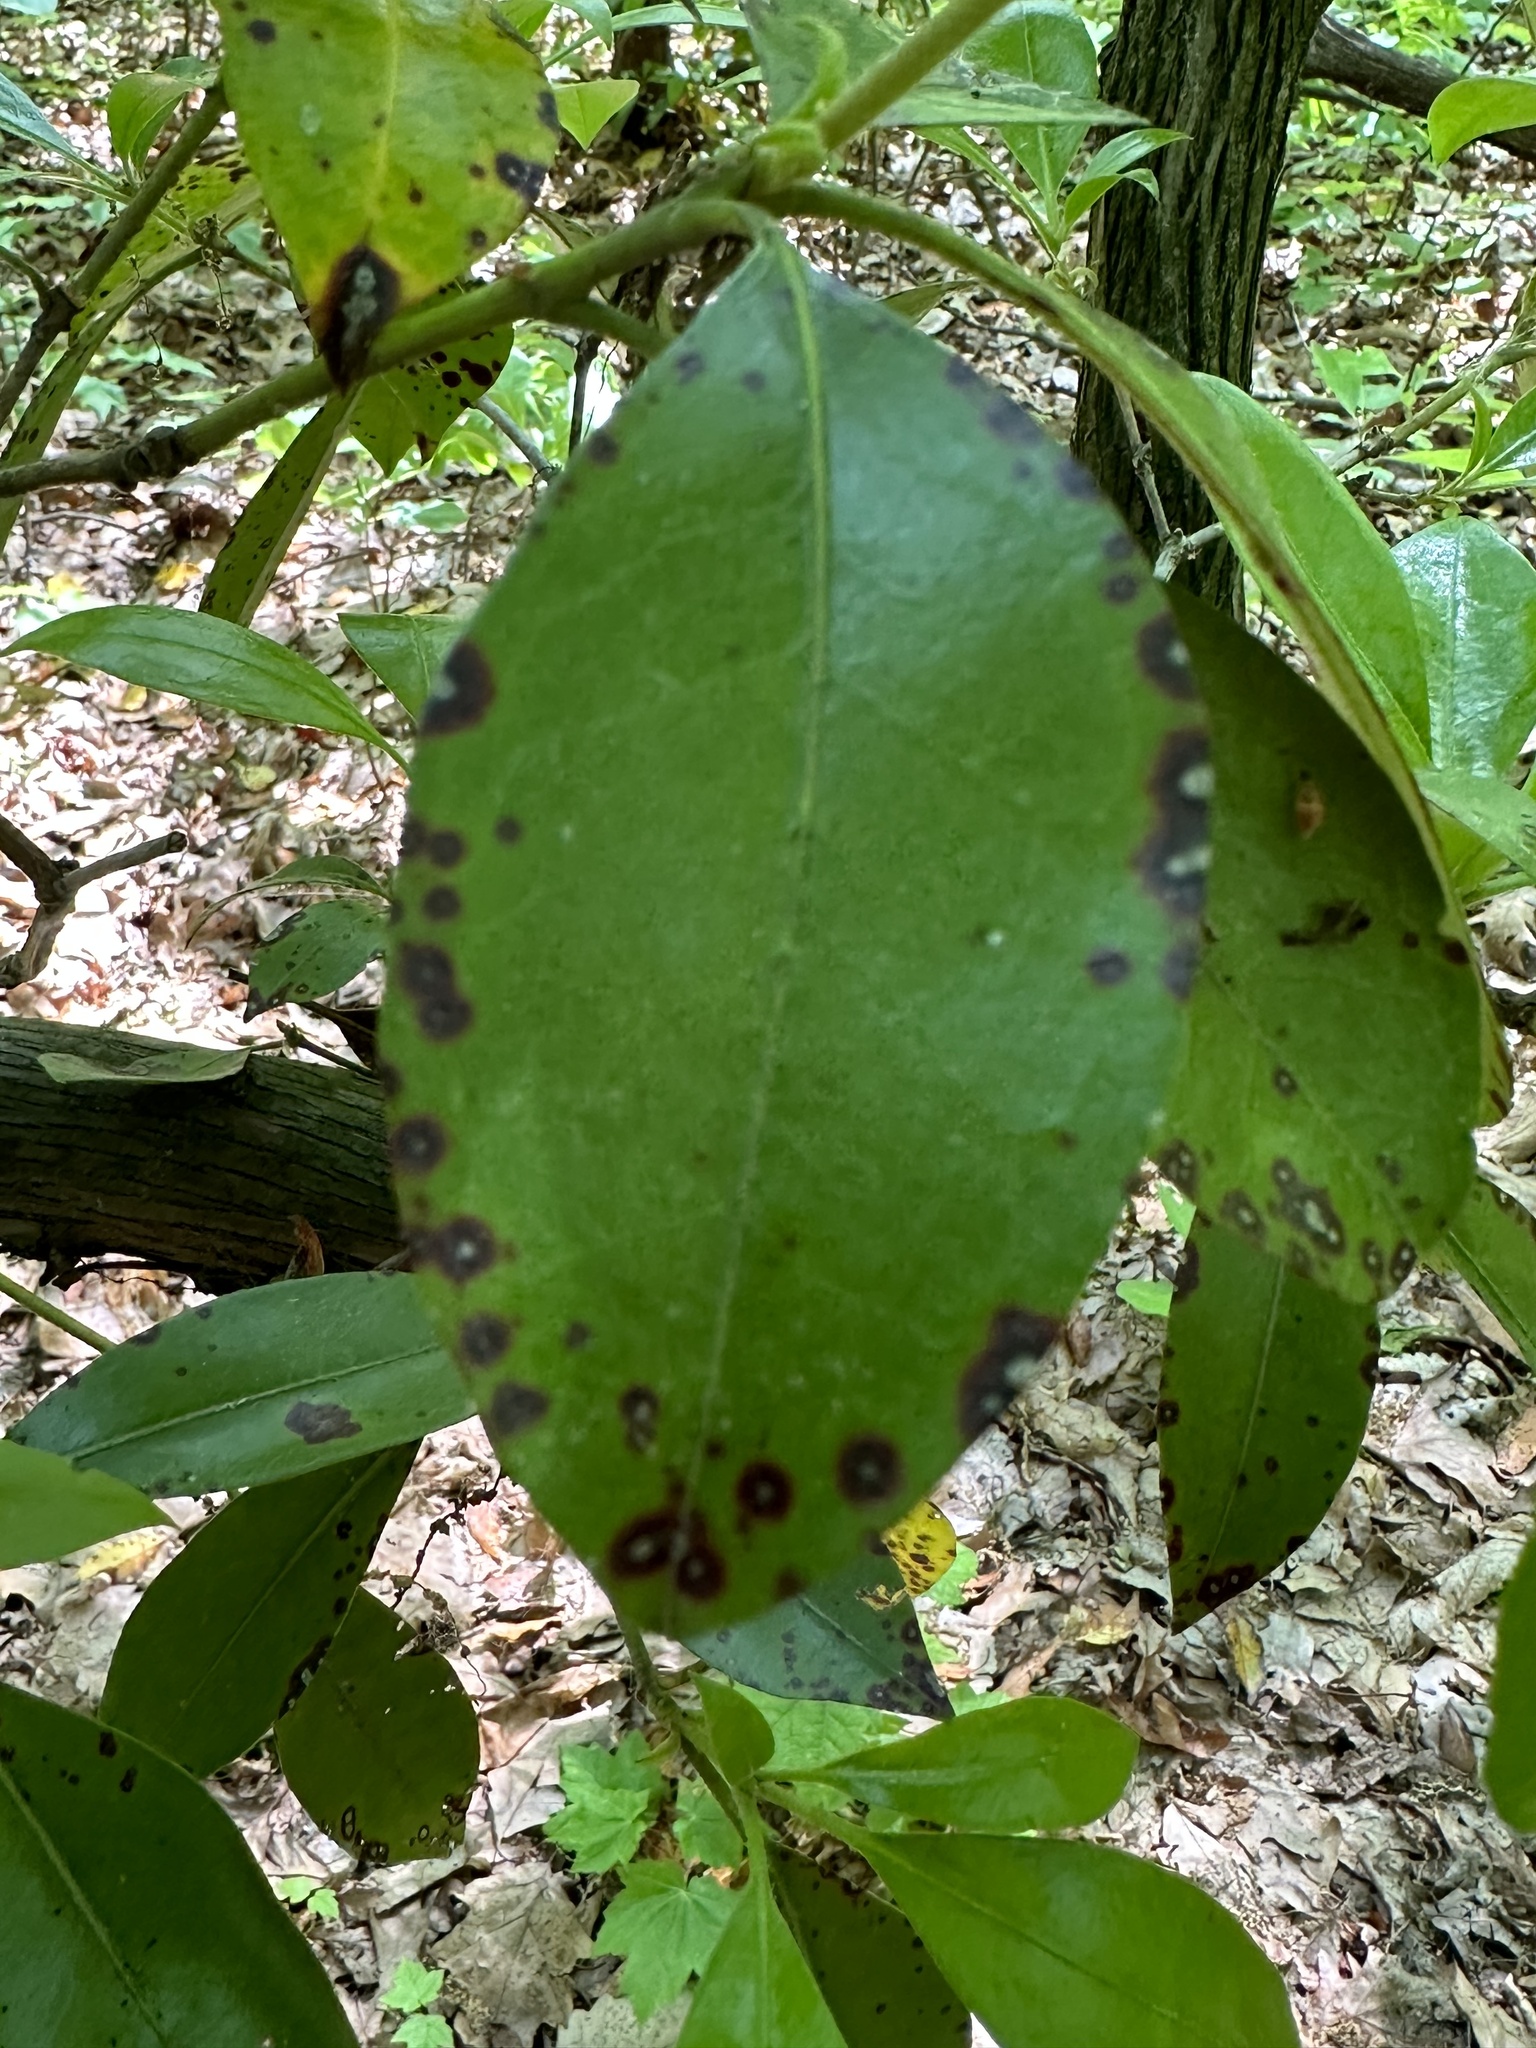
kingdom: Fungi
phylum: Ascomycota
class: Dothideomycetes
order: Mycosphaerellales
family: Mycosphaerellaceae
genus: Mycosphaerella
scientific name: Mycosphaerella colorata
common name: Mountain laurel leaf spot
